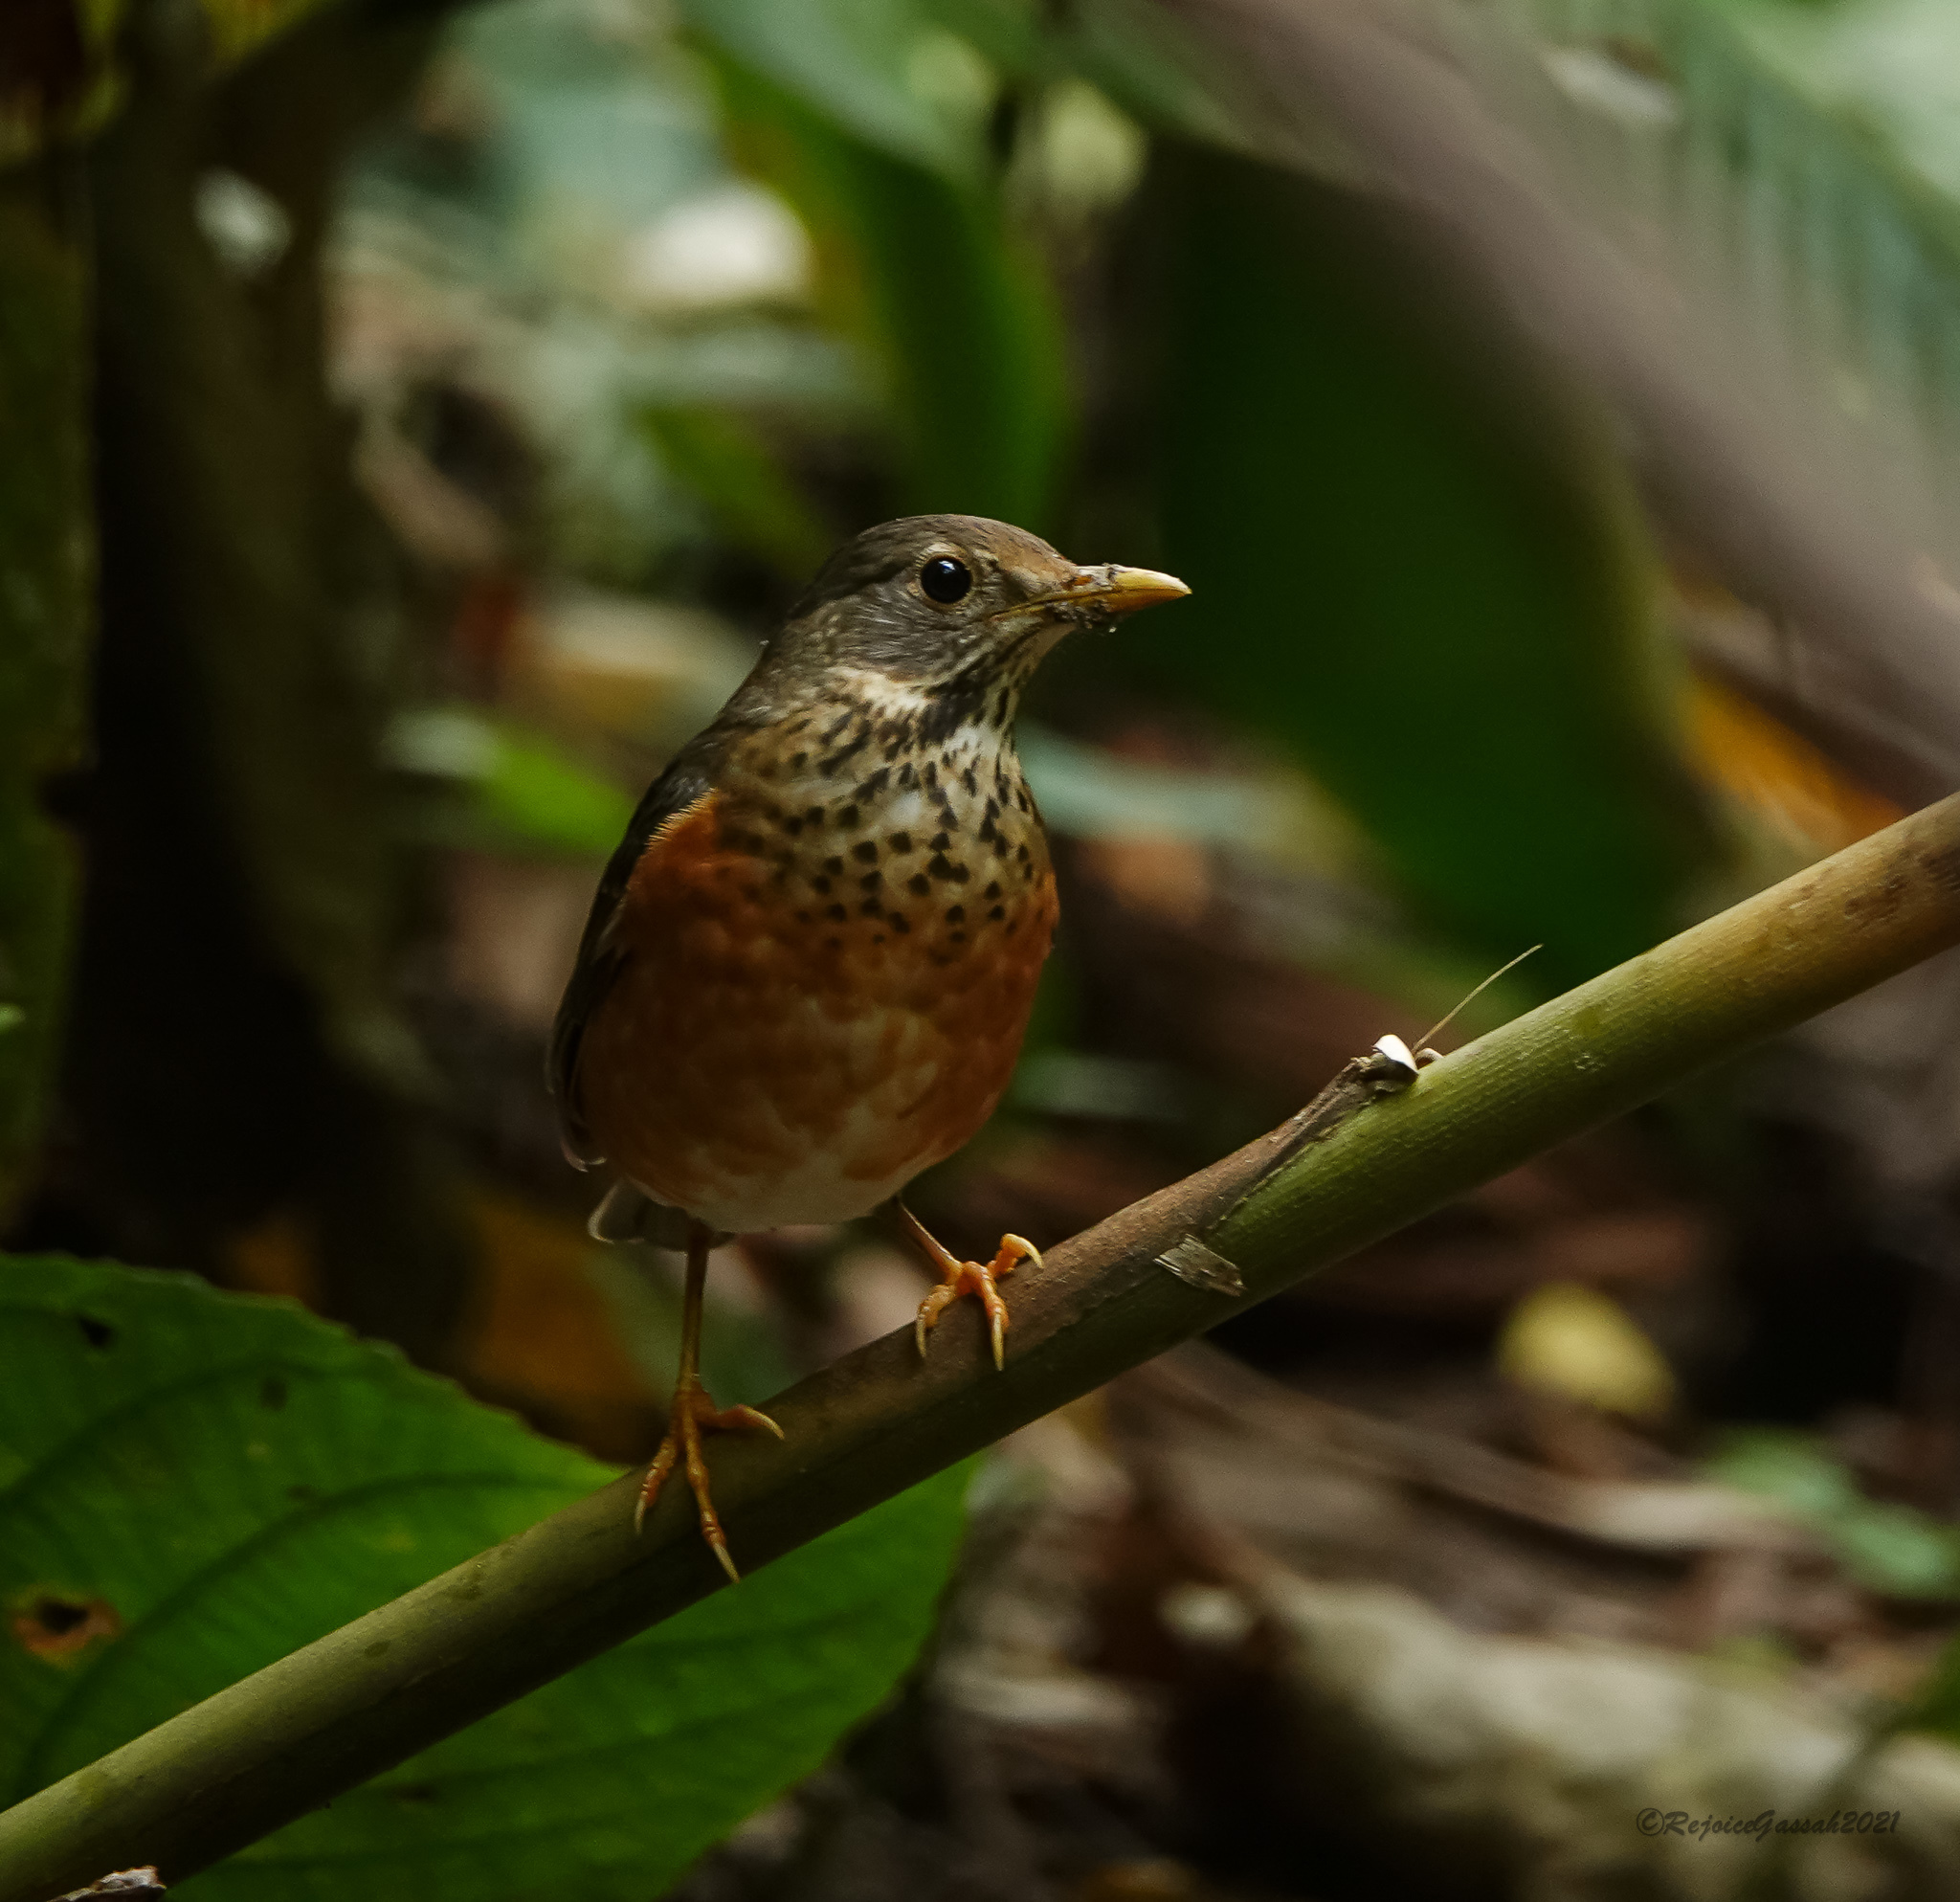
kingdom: Animalia
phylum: Chordata
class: Aves
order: Passeriformes
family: Turdidae
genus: Turdus
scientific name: Turdus dissimilis
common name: Black-breasted thrush
